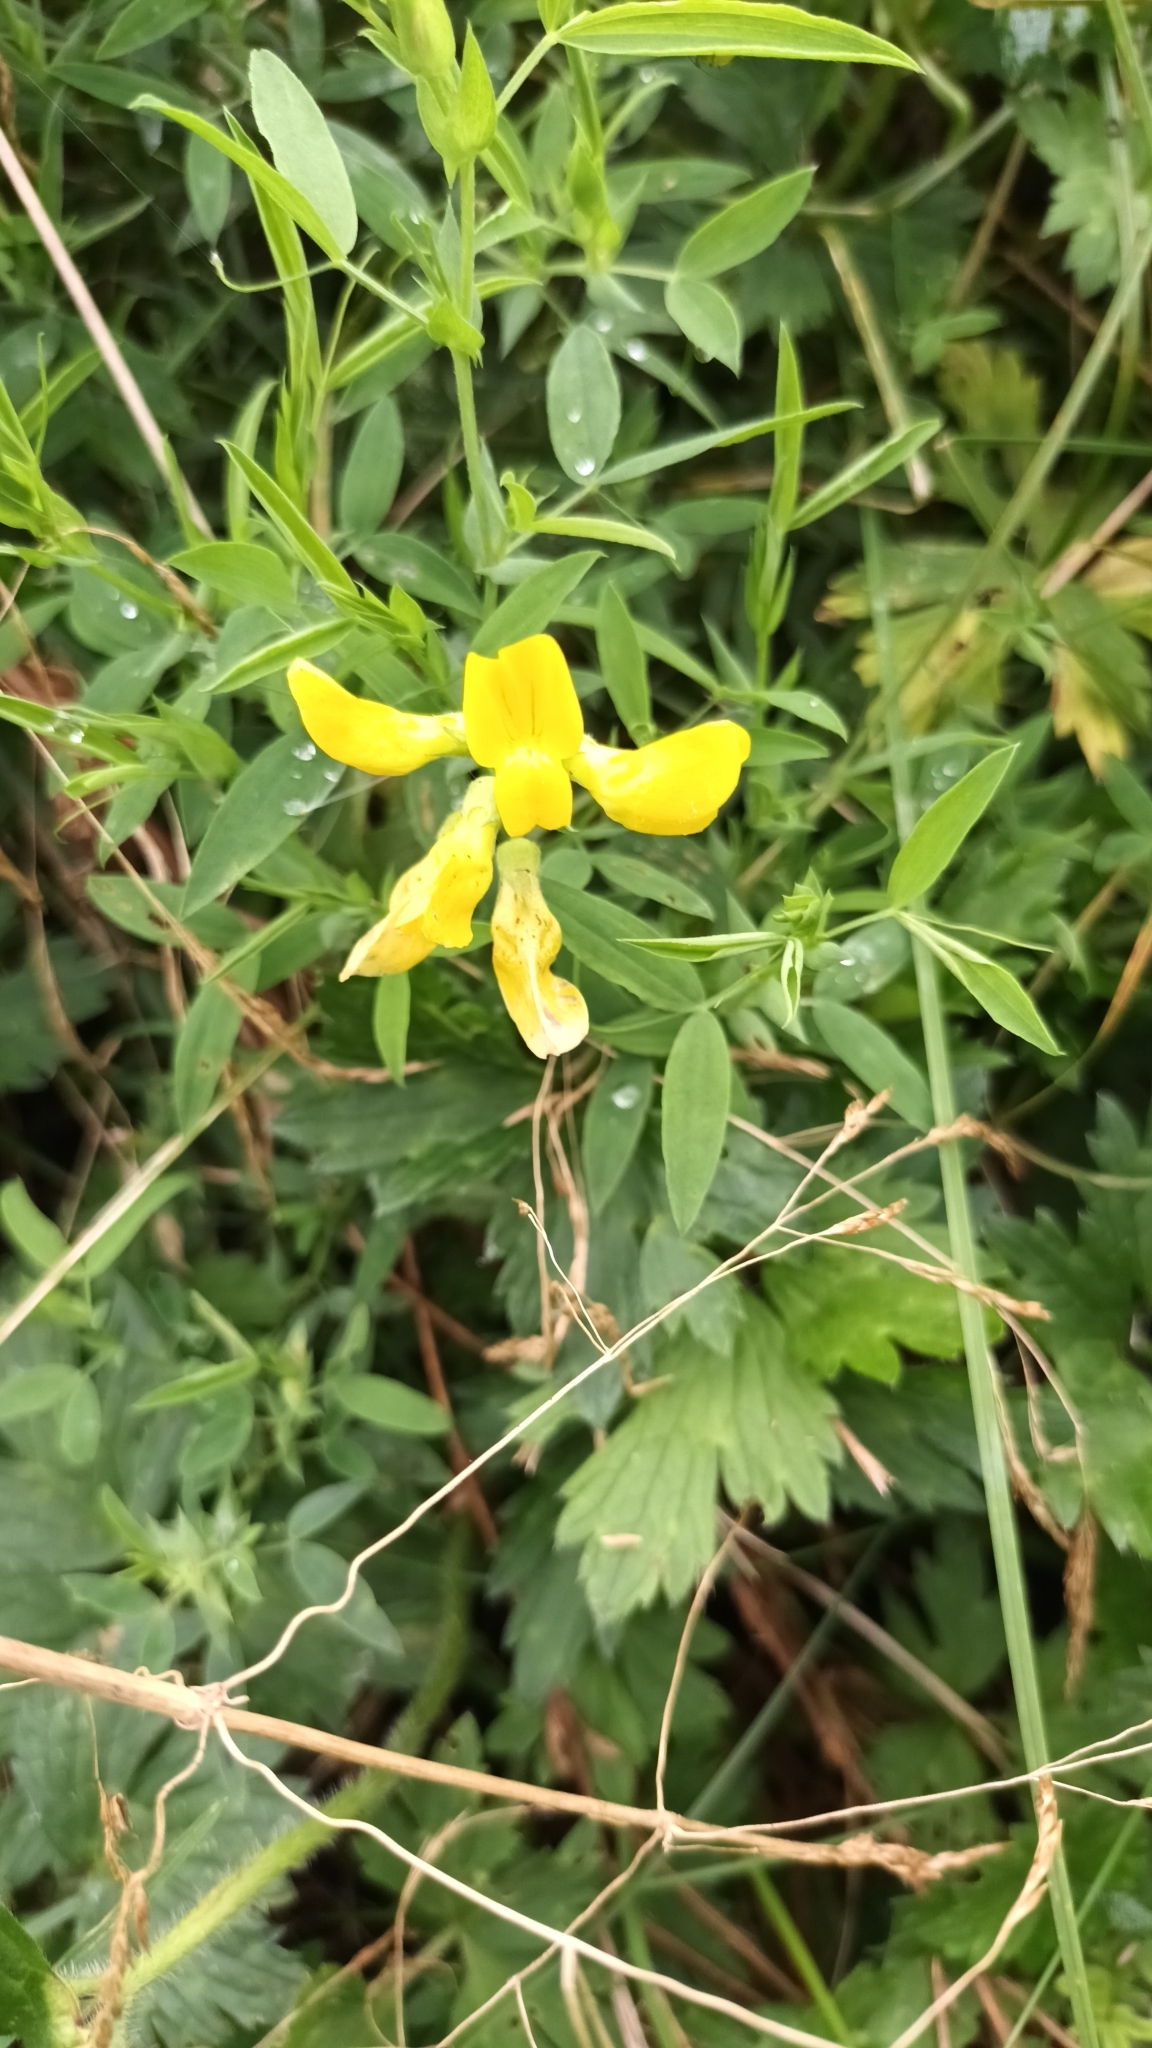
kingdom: Plantae
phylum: Tracheophyta
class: Magnoliopsida
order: Fabales
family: Fabaceae
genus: Lathyrus
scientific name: Lathyrus pratensis
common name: Meadow vetchling
